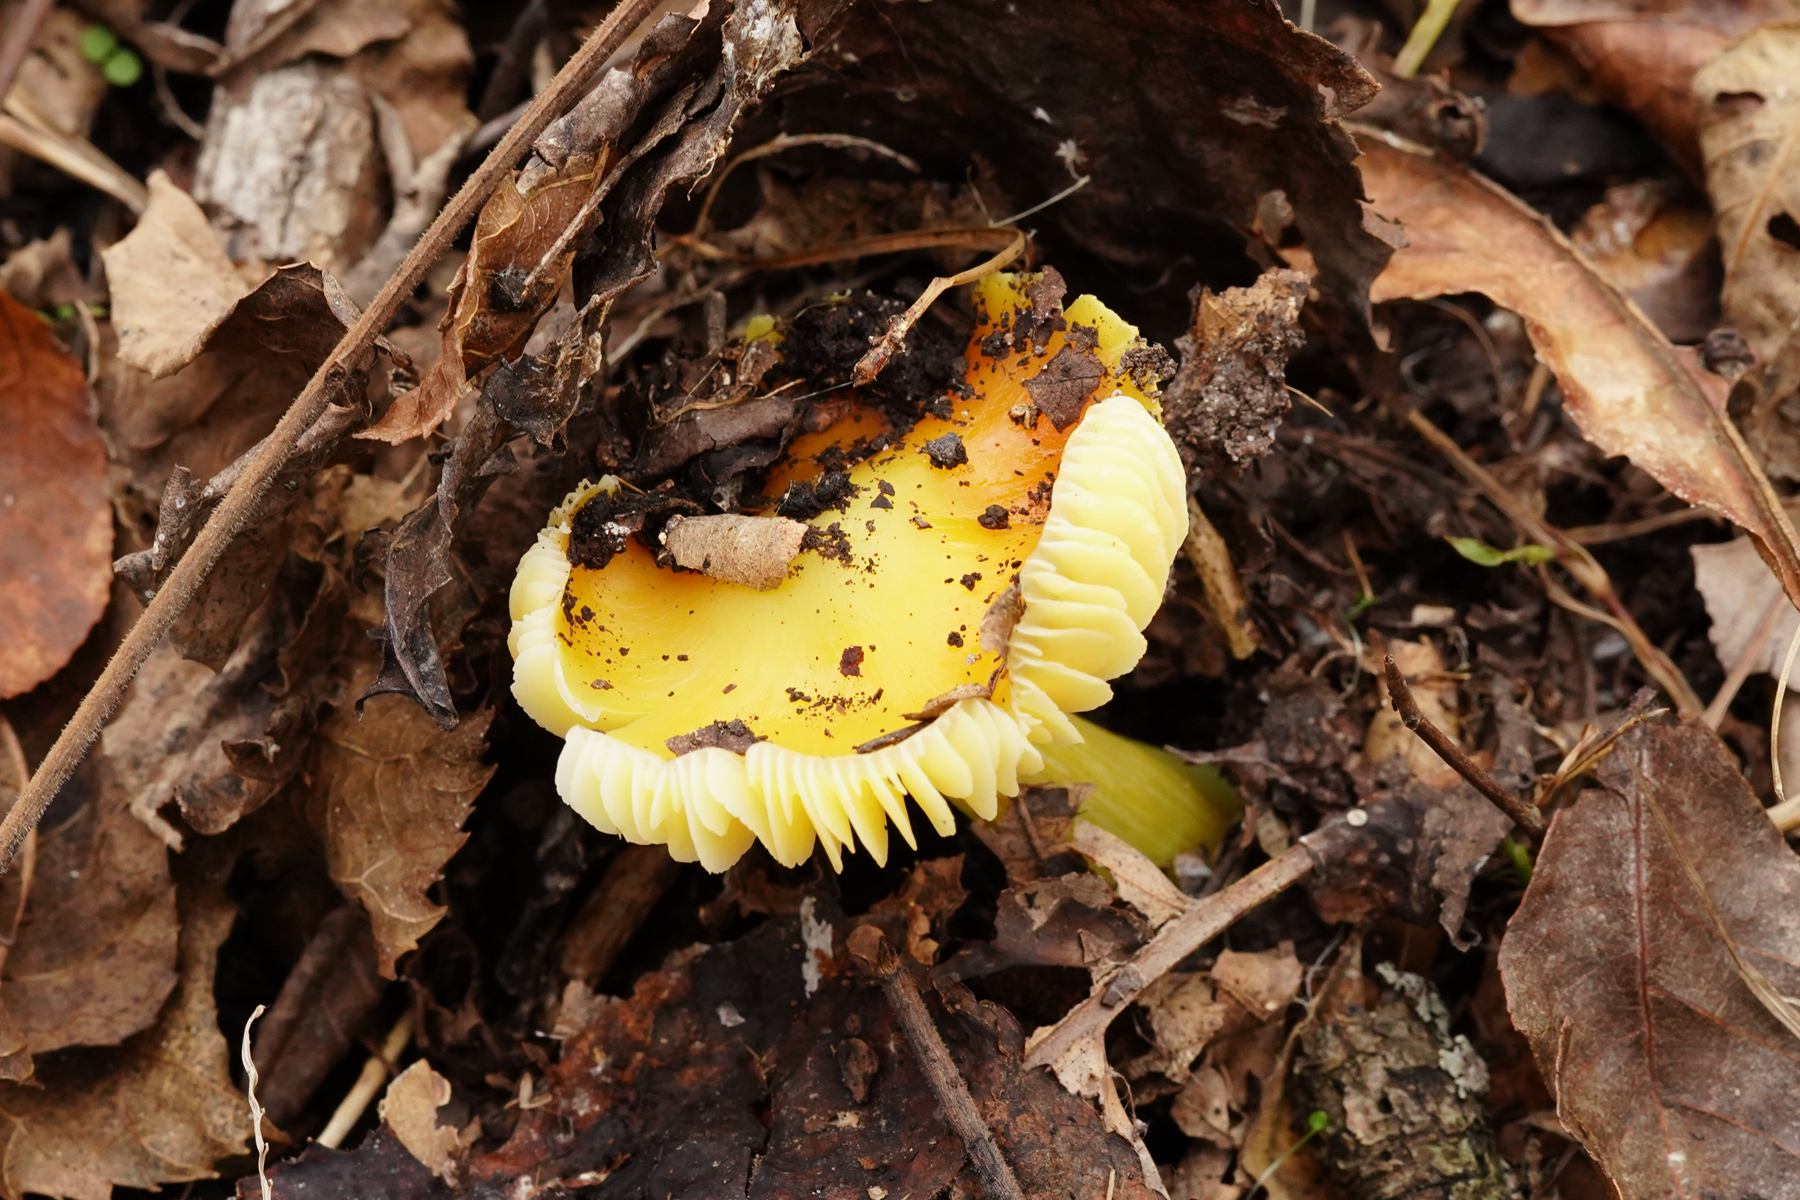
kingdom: Fungi
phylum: Basidiomycota
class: Agaricomycetes
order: Agaricales
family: Hygrophoraceae
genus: Hygrocybe
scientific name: Hygrocybe flavescens
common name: Golden waxy cap
